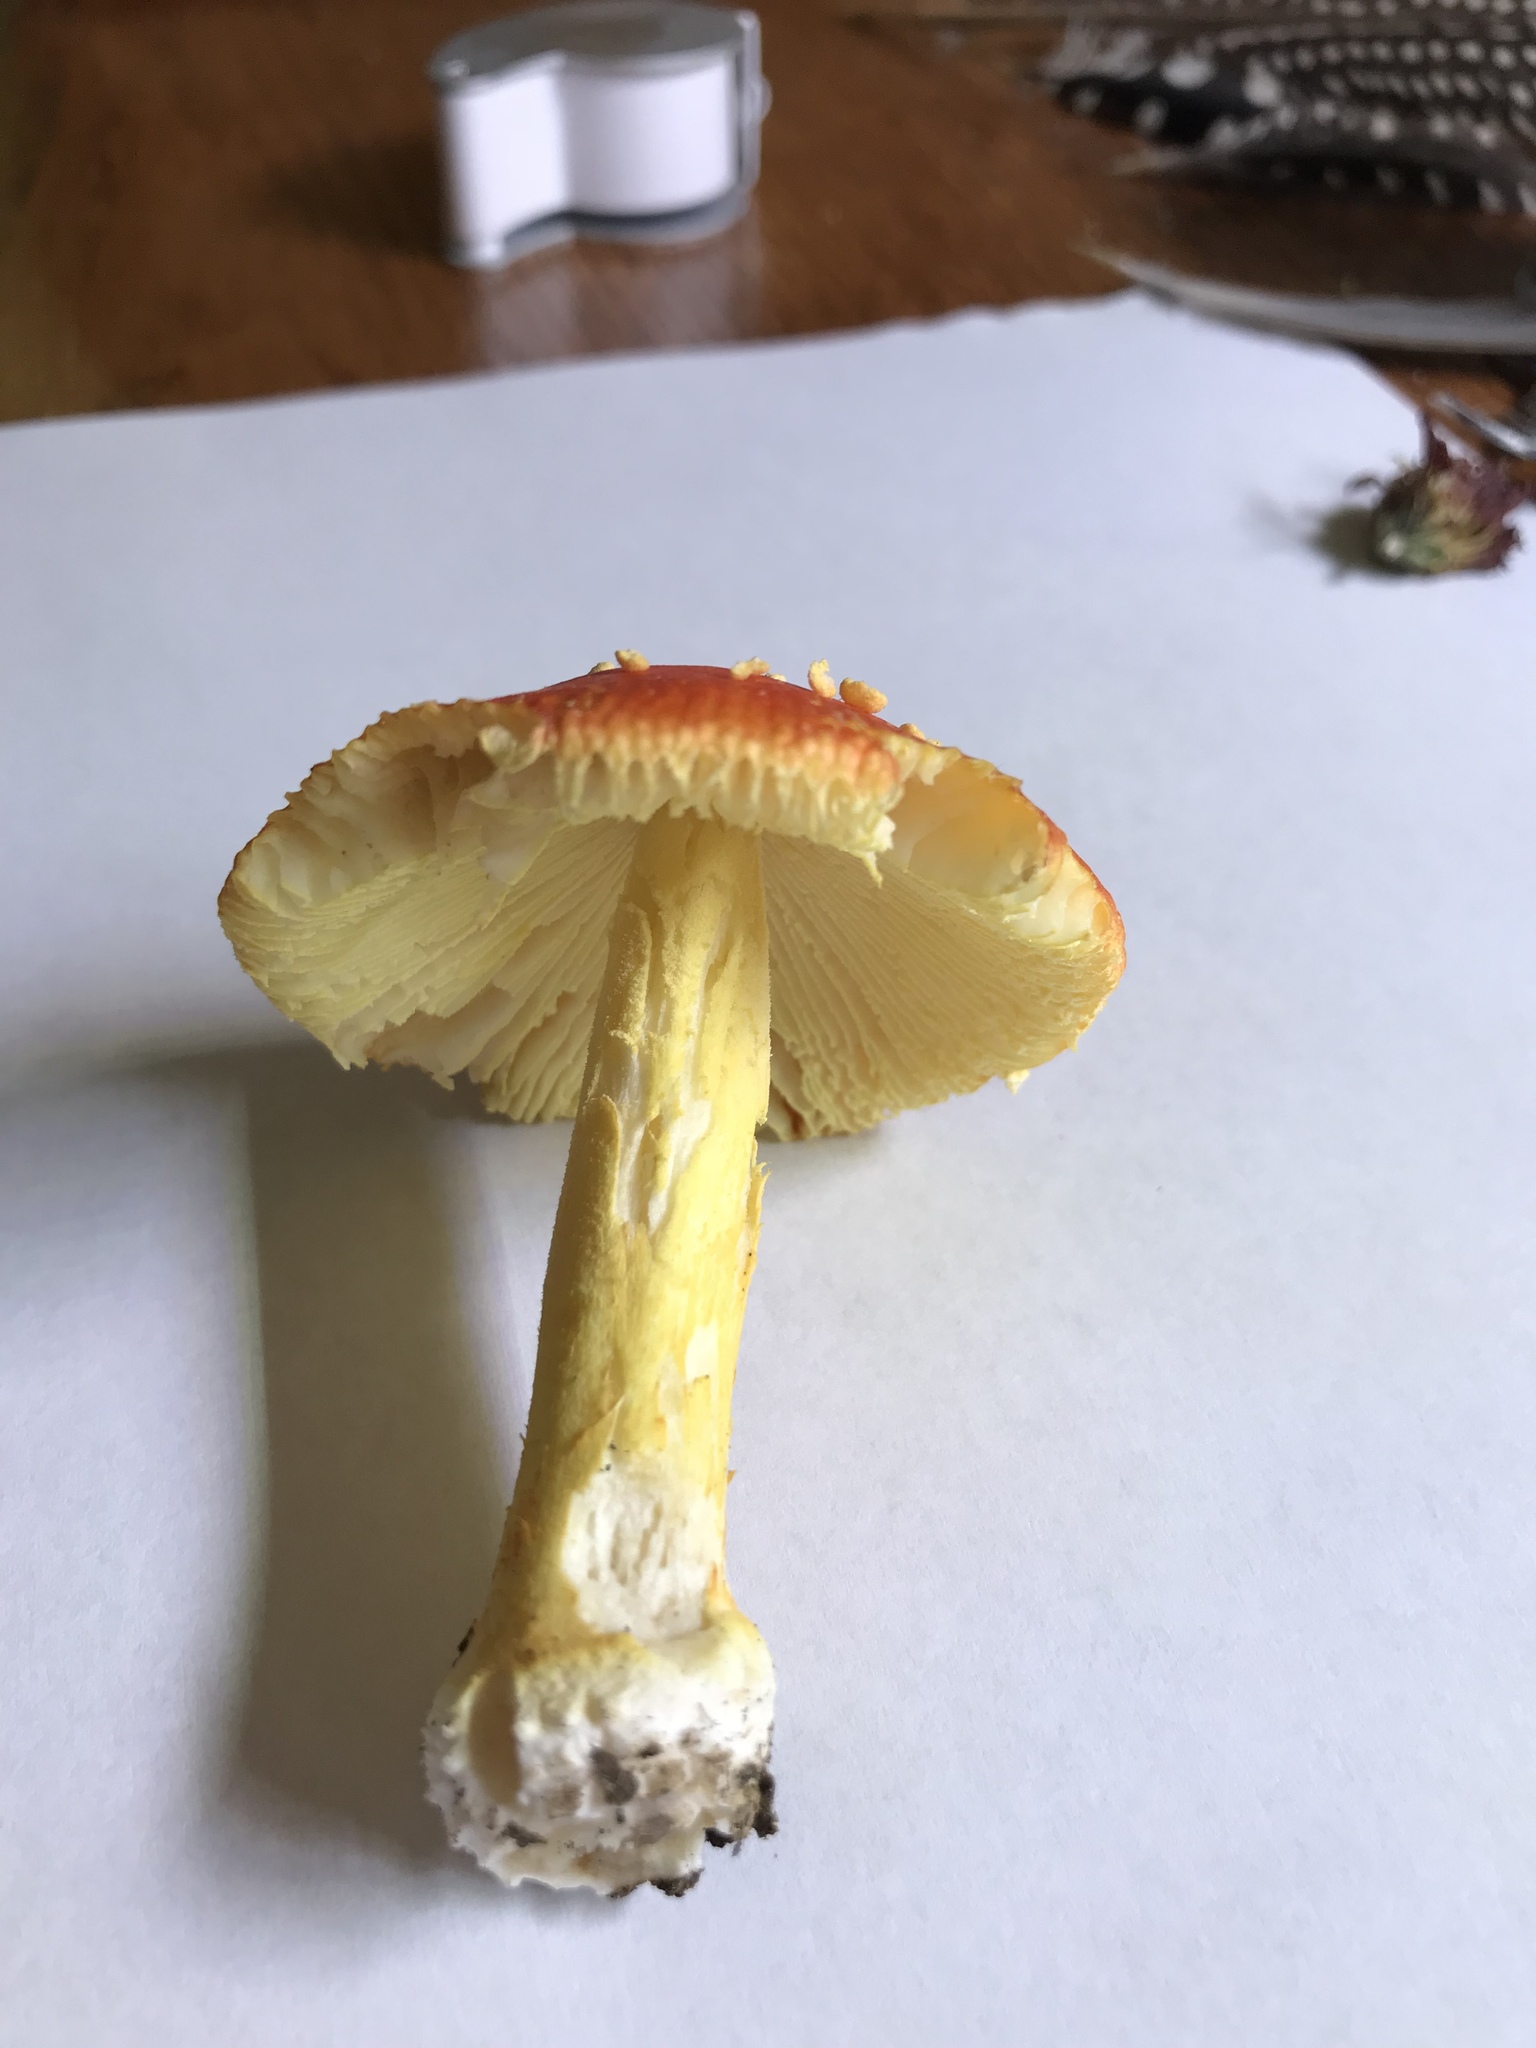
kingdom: Fungi
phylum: Basidiomycota
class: Agaricomycetes
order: Agaricales
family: Amanitaceae
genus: Amanita
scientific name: Amanita parcivolvata
